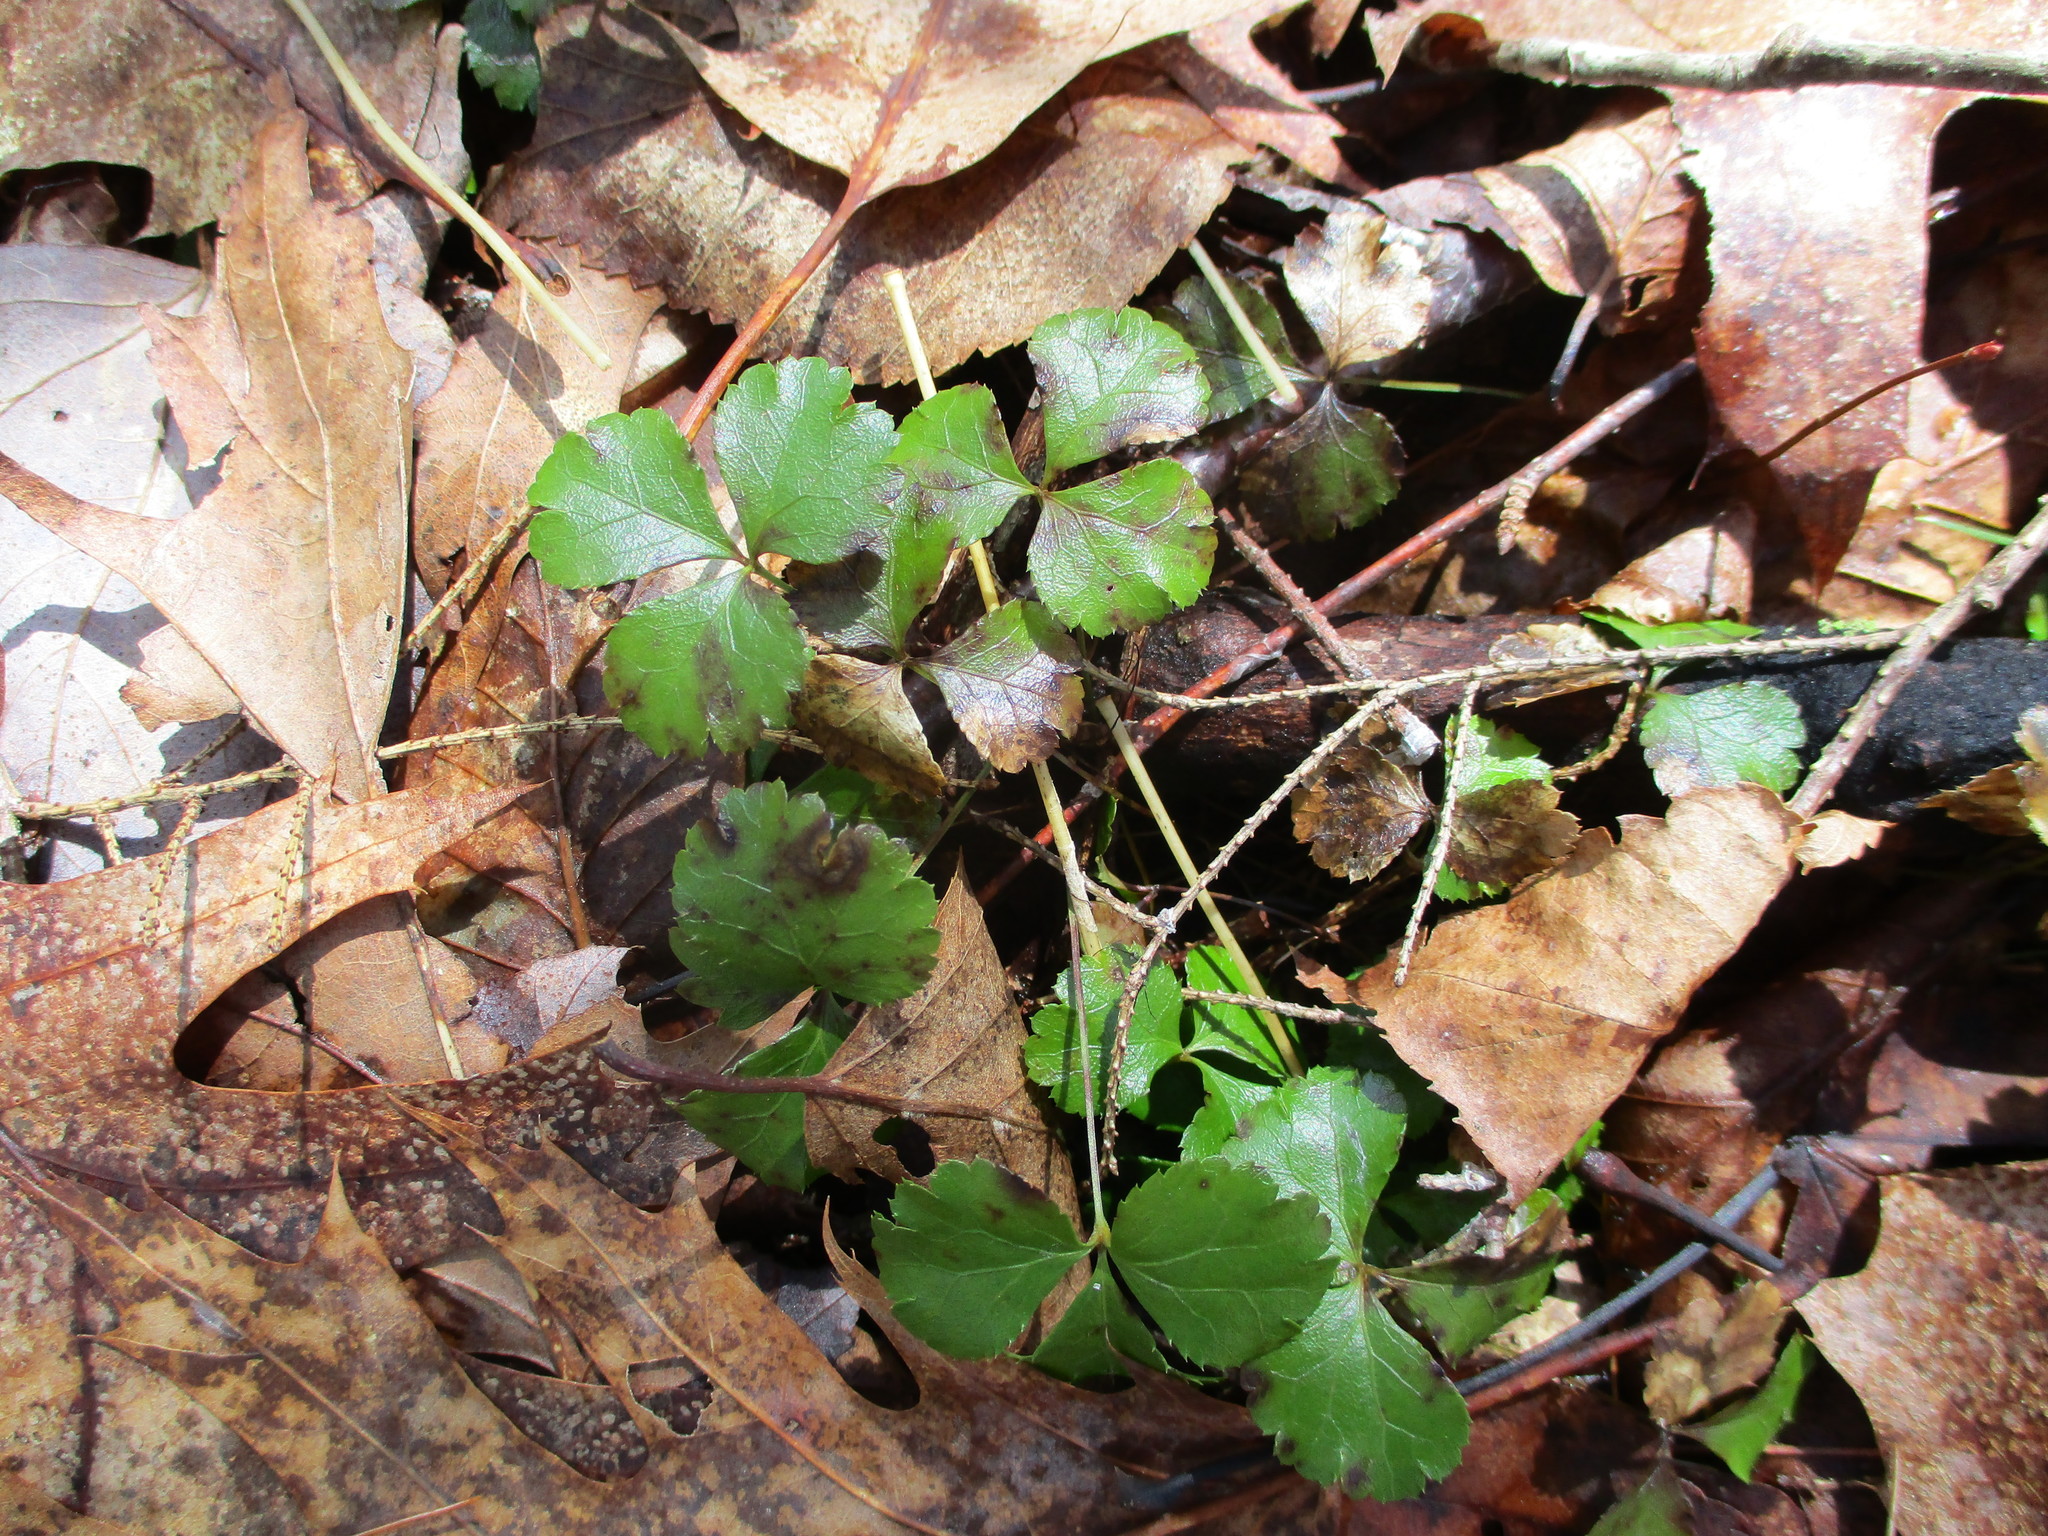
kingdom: Plantae
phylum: Tracheophyta
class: Magnoliopsida
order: Ranunculales
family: Ranunculaceae
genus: Coptis
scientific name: Coptis trifolia
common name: Canker-root
